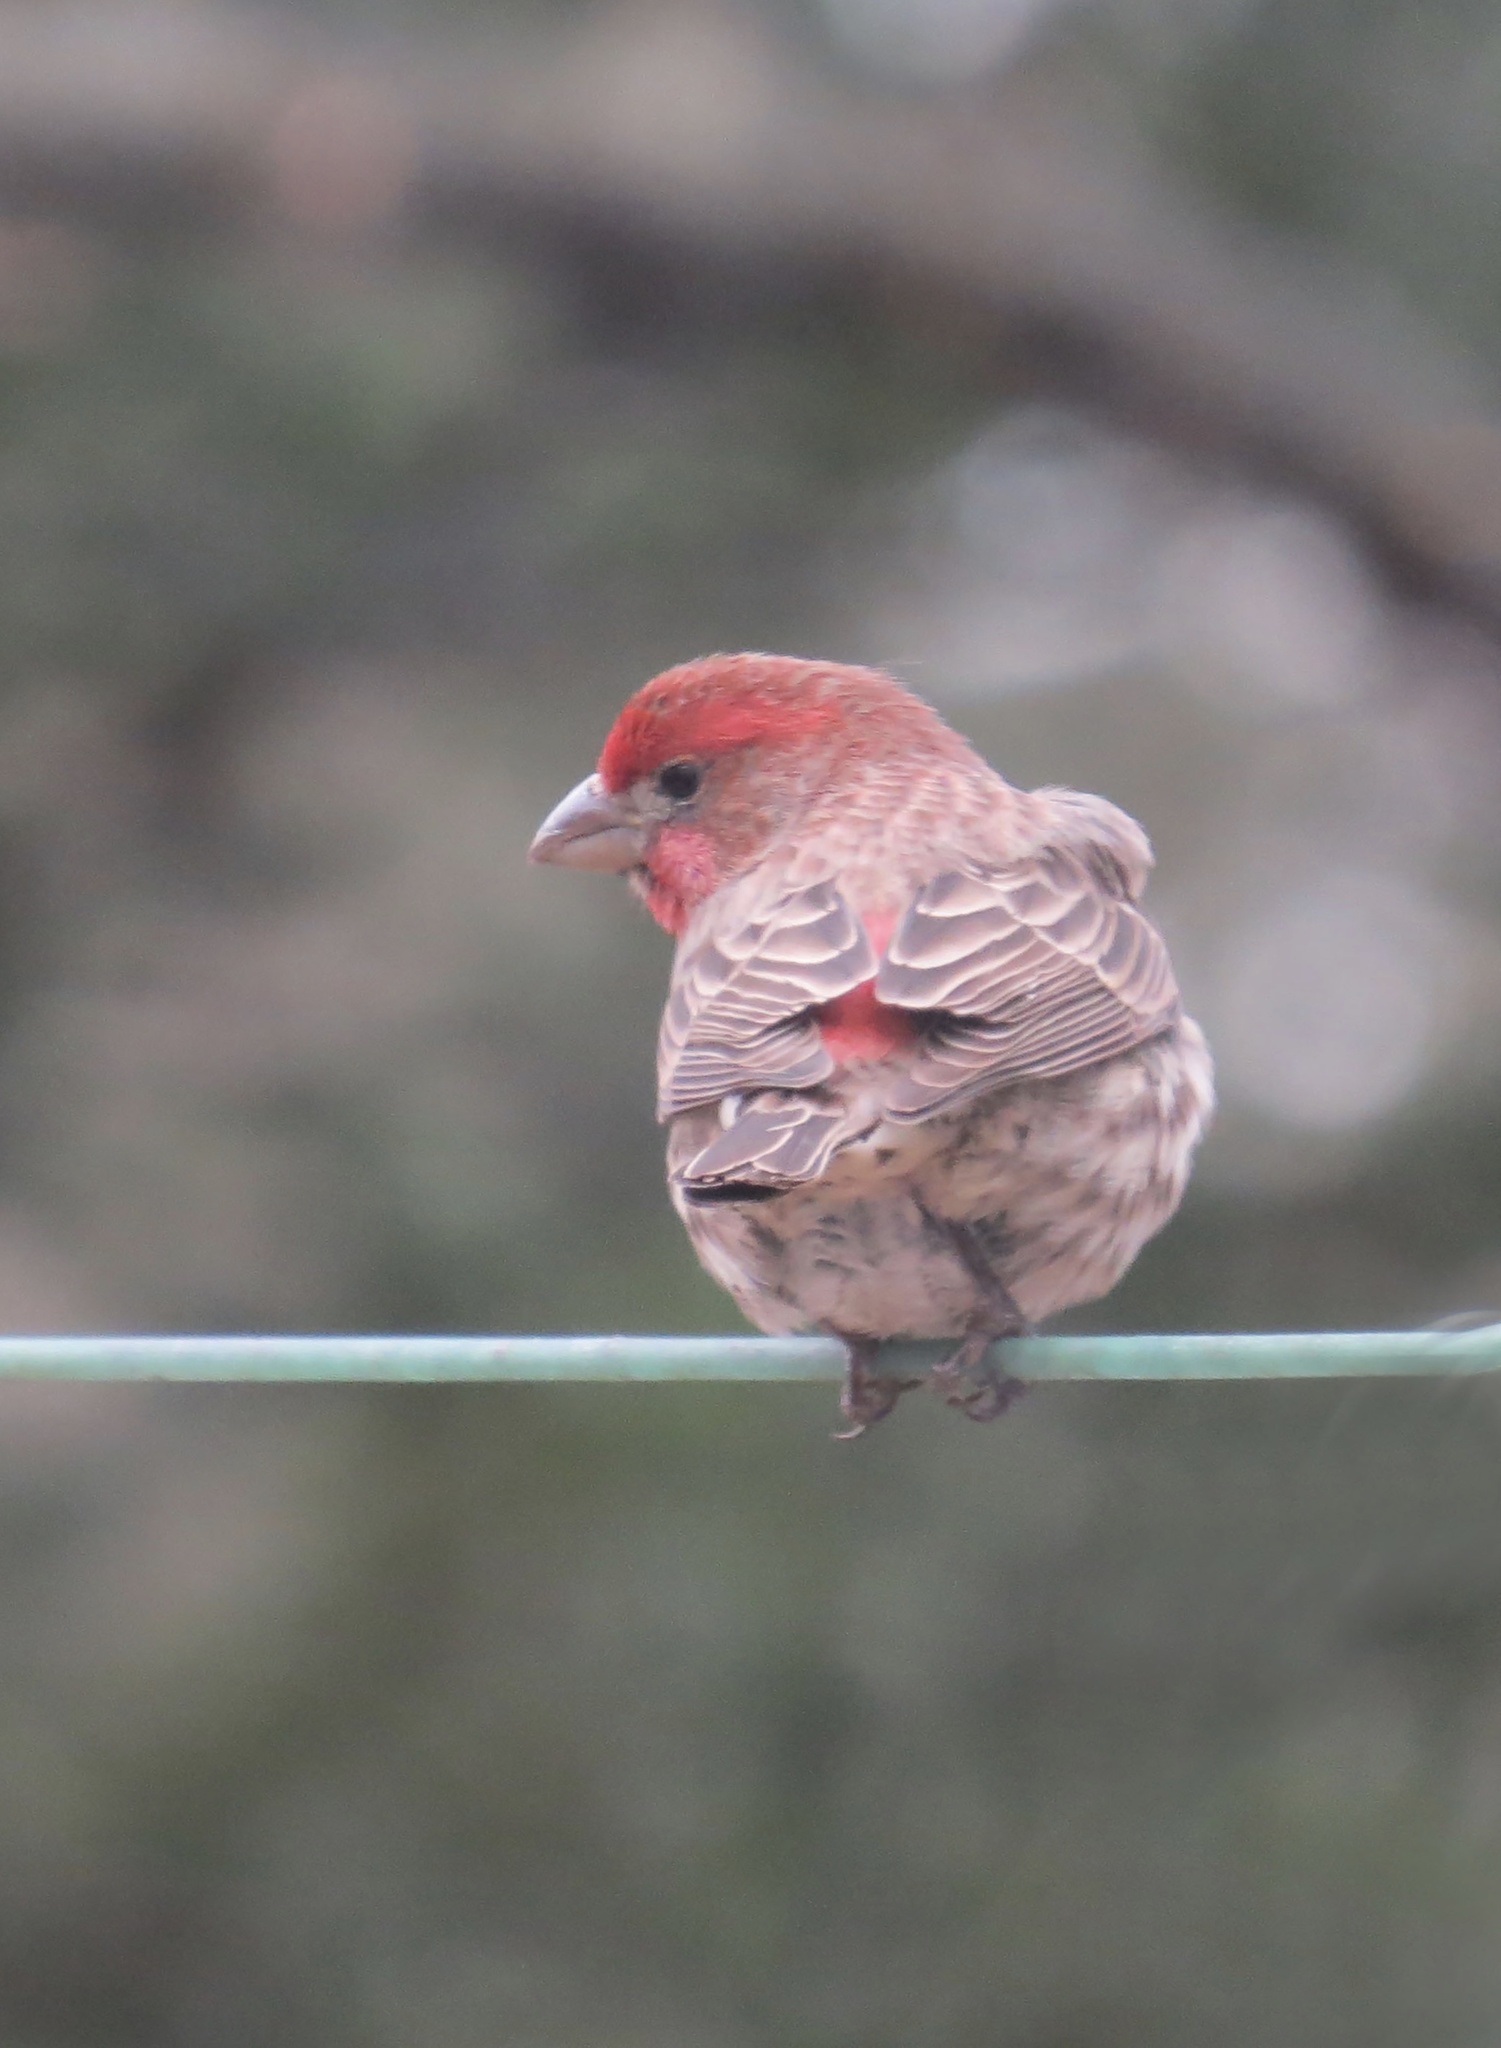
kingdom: Animalia
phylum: Chordata
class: Aves
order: Passeriformes
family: Fringillidae
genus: Haemorhous
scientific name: Haemorhous mexicanus
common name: House finch
